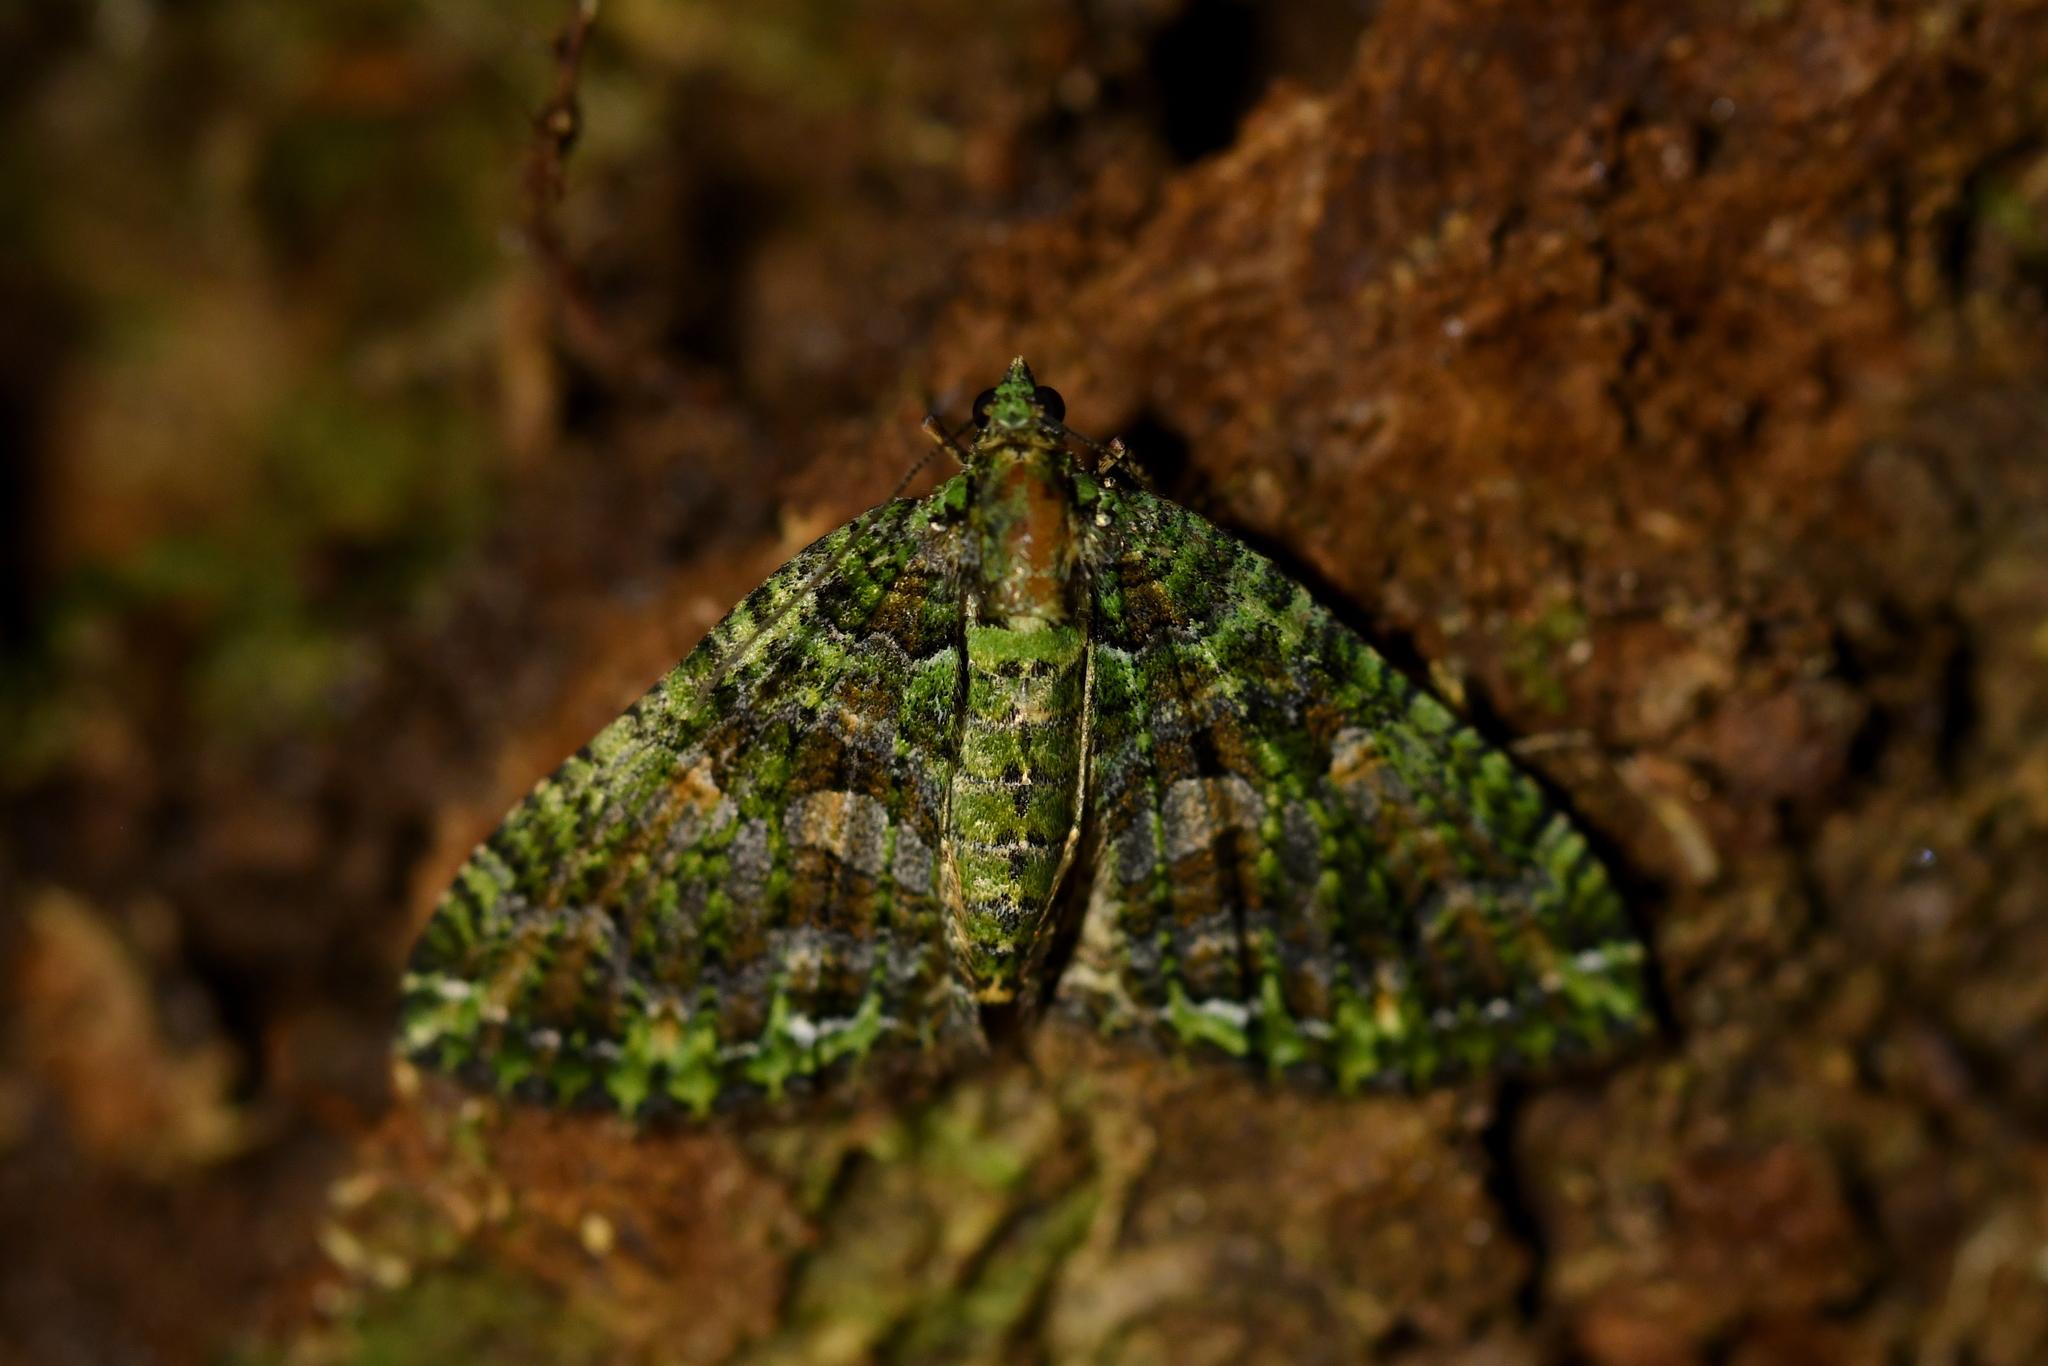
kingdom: Animalia
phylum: Arthropoda
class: Insecta
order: Lepidoptera
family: Geometridae
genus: Austrocidaria
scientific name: Austrocidaria similata
